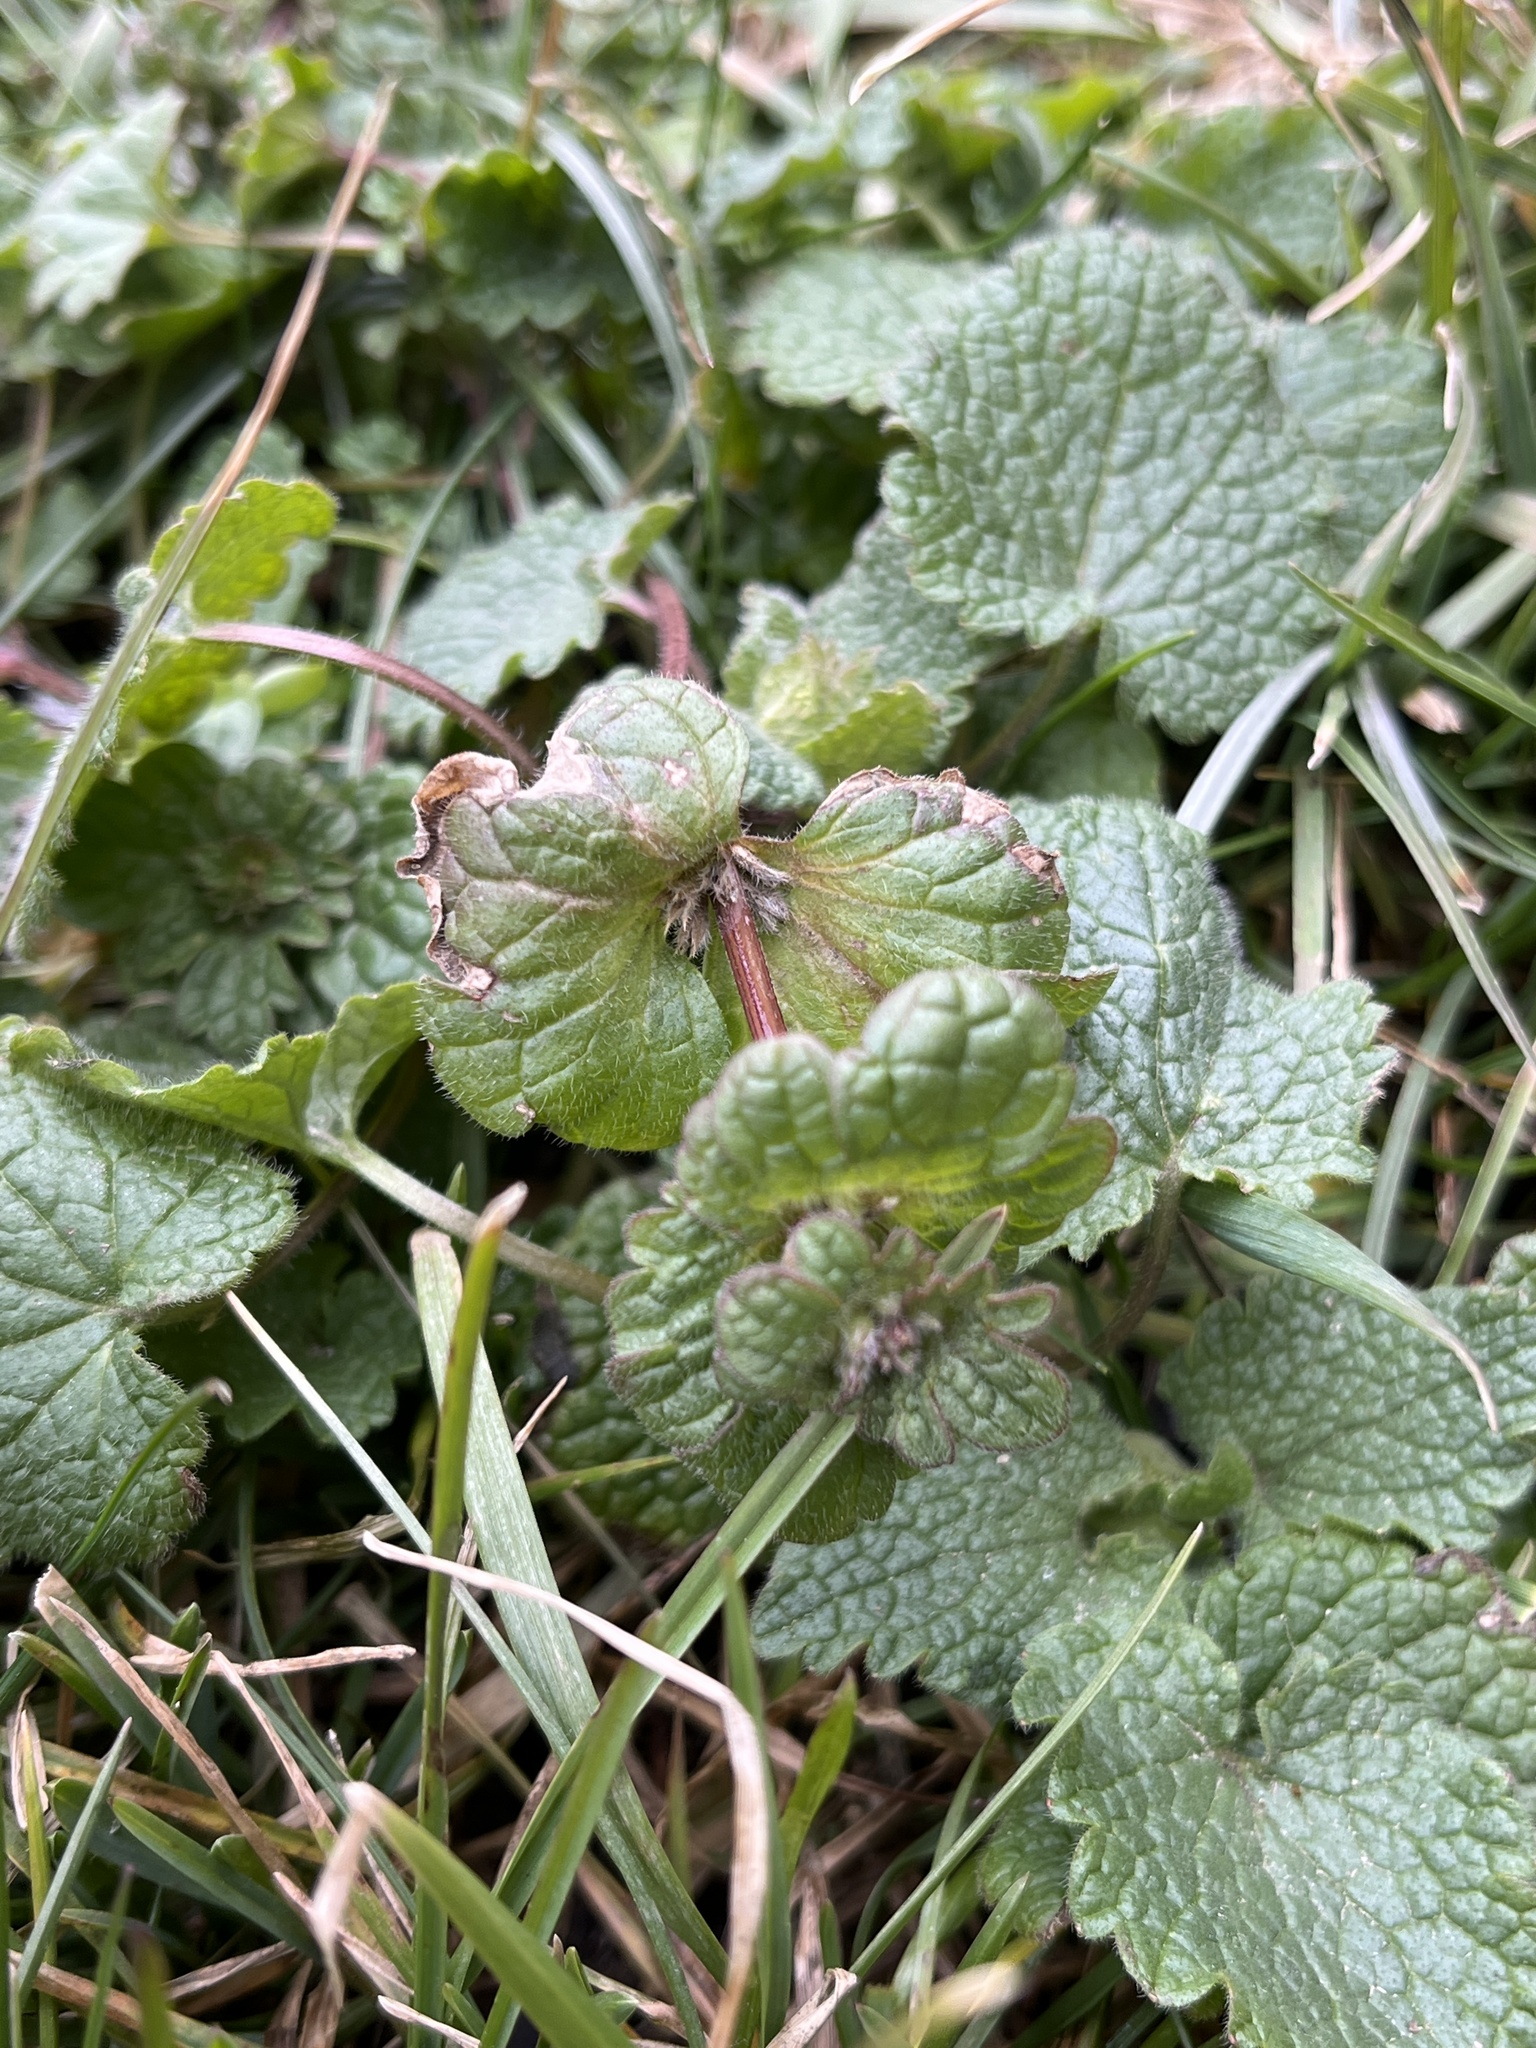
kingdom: Plantae
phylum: Tracheophyta
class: Magnoliopsida
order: Lamiales
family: Lamiaceae
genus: Lamium
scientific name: Lamium amplexicaule
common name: Henbit dead-nettle
